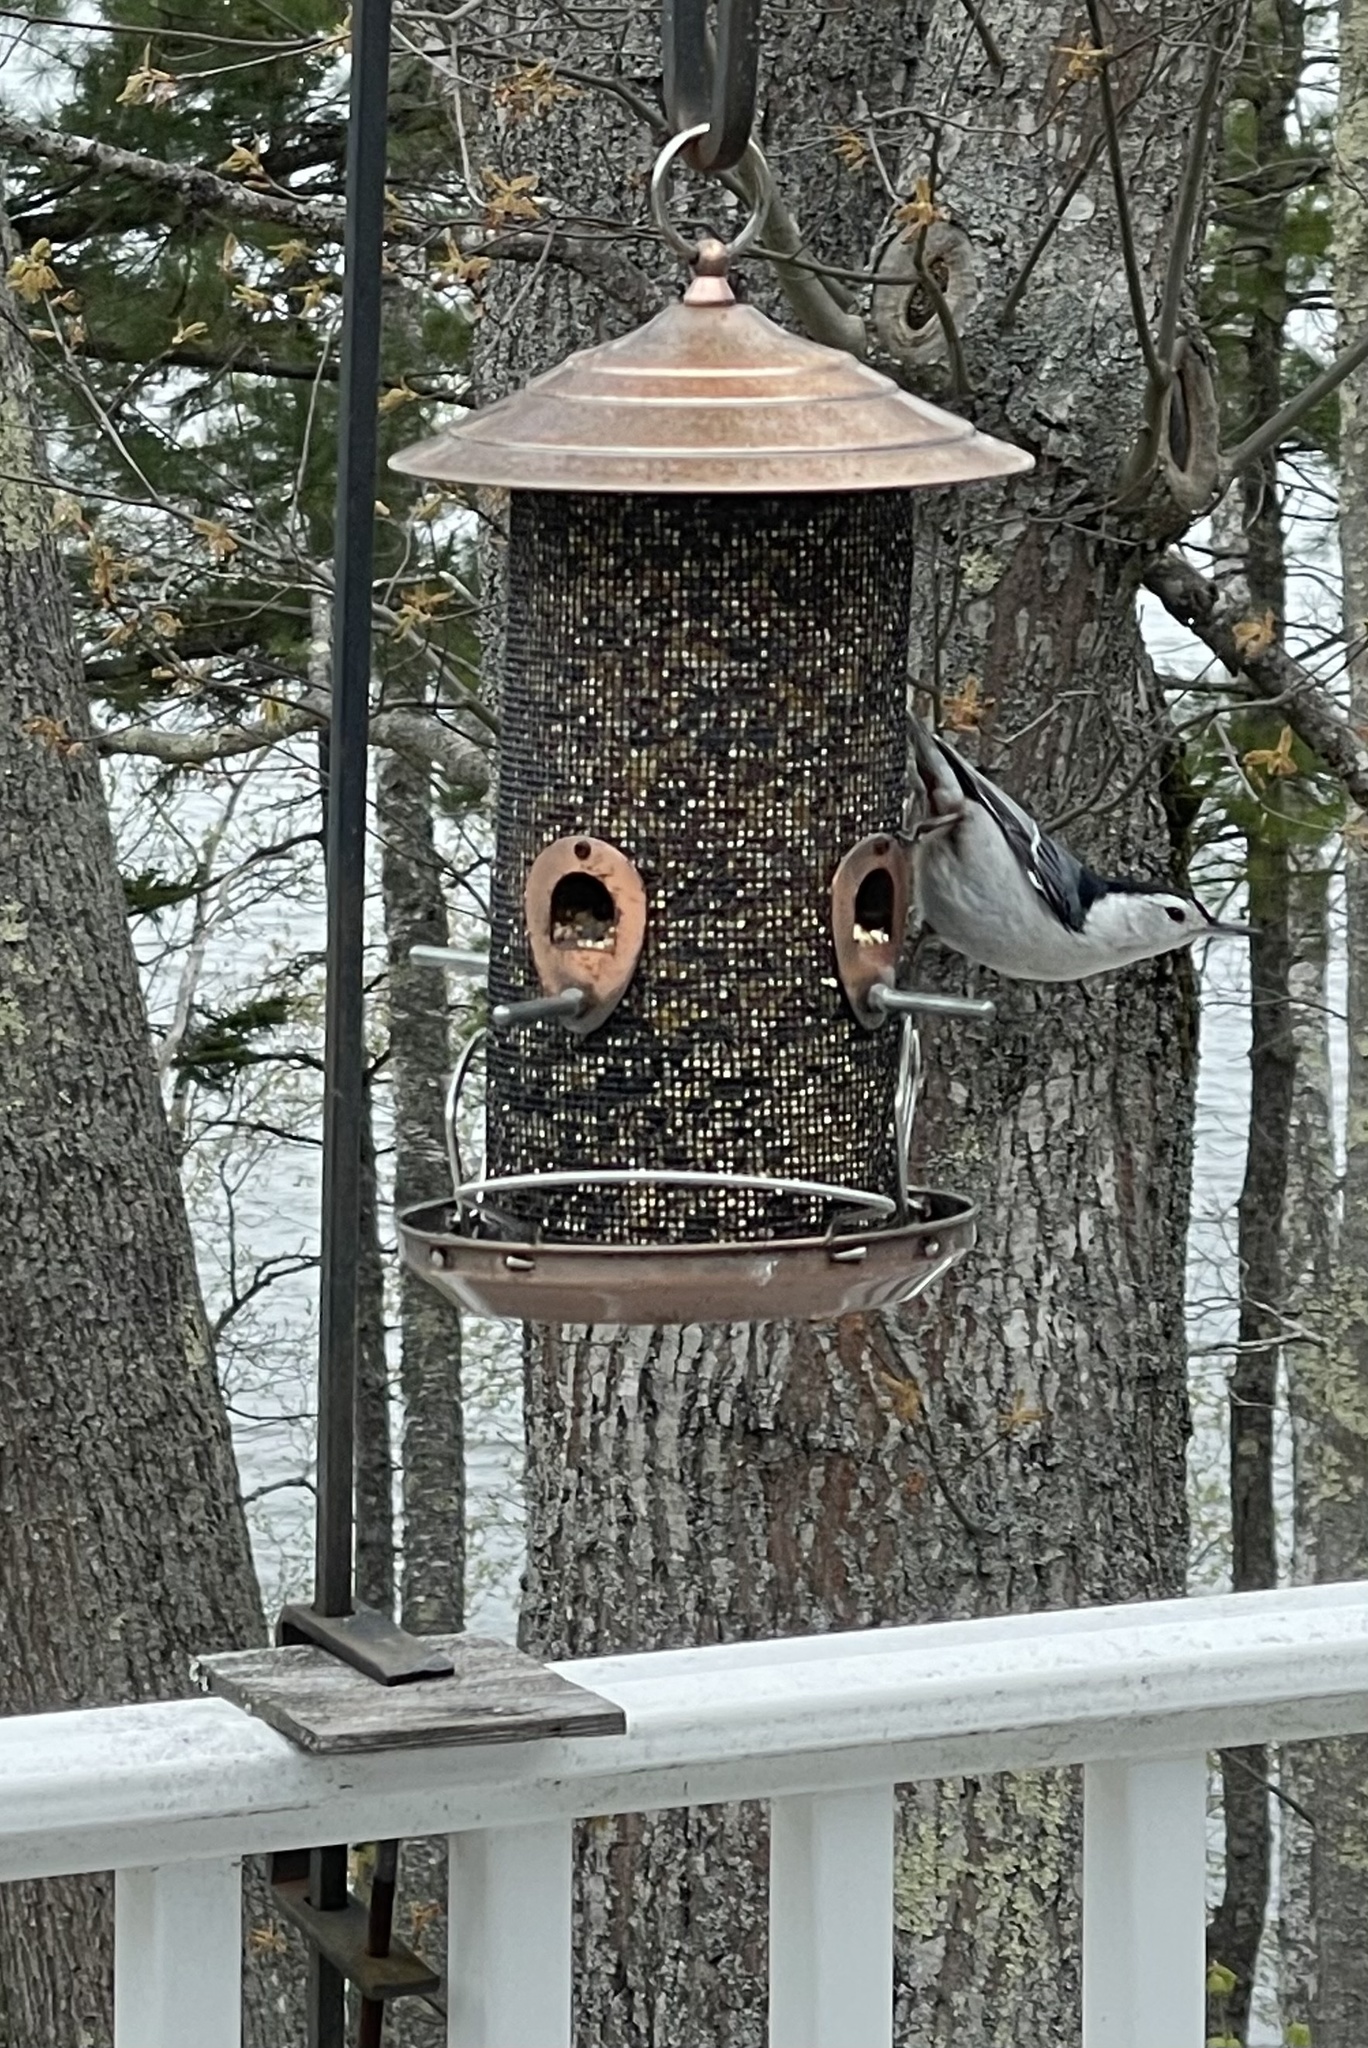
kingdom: Animalia
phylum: Chordata
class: Aves
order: Passeriformes
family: Sittidae
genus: Sitta
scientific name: Sitta carolinensis
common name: White-breasted nuthatch
